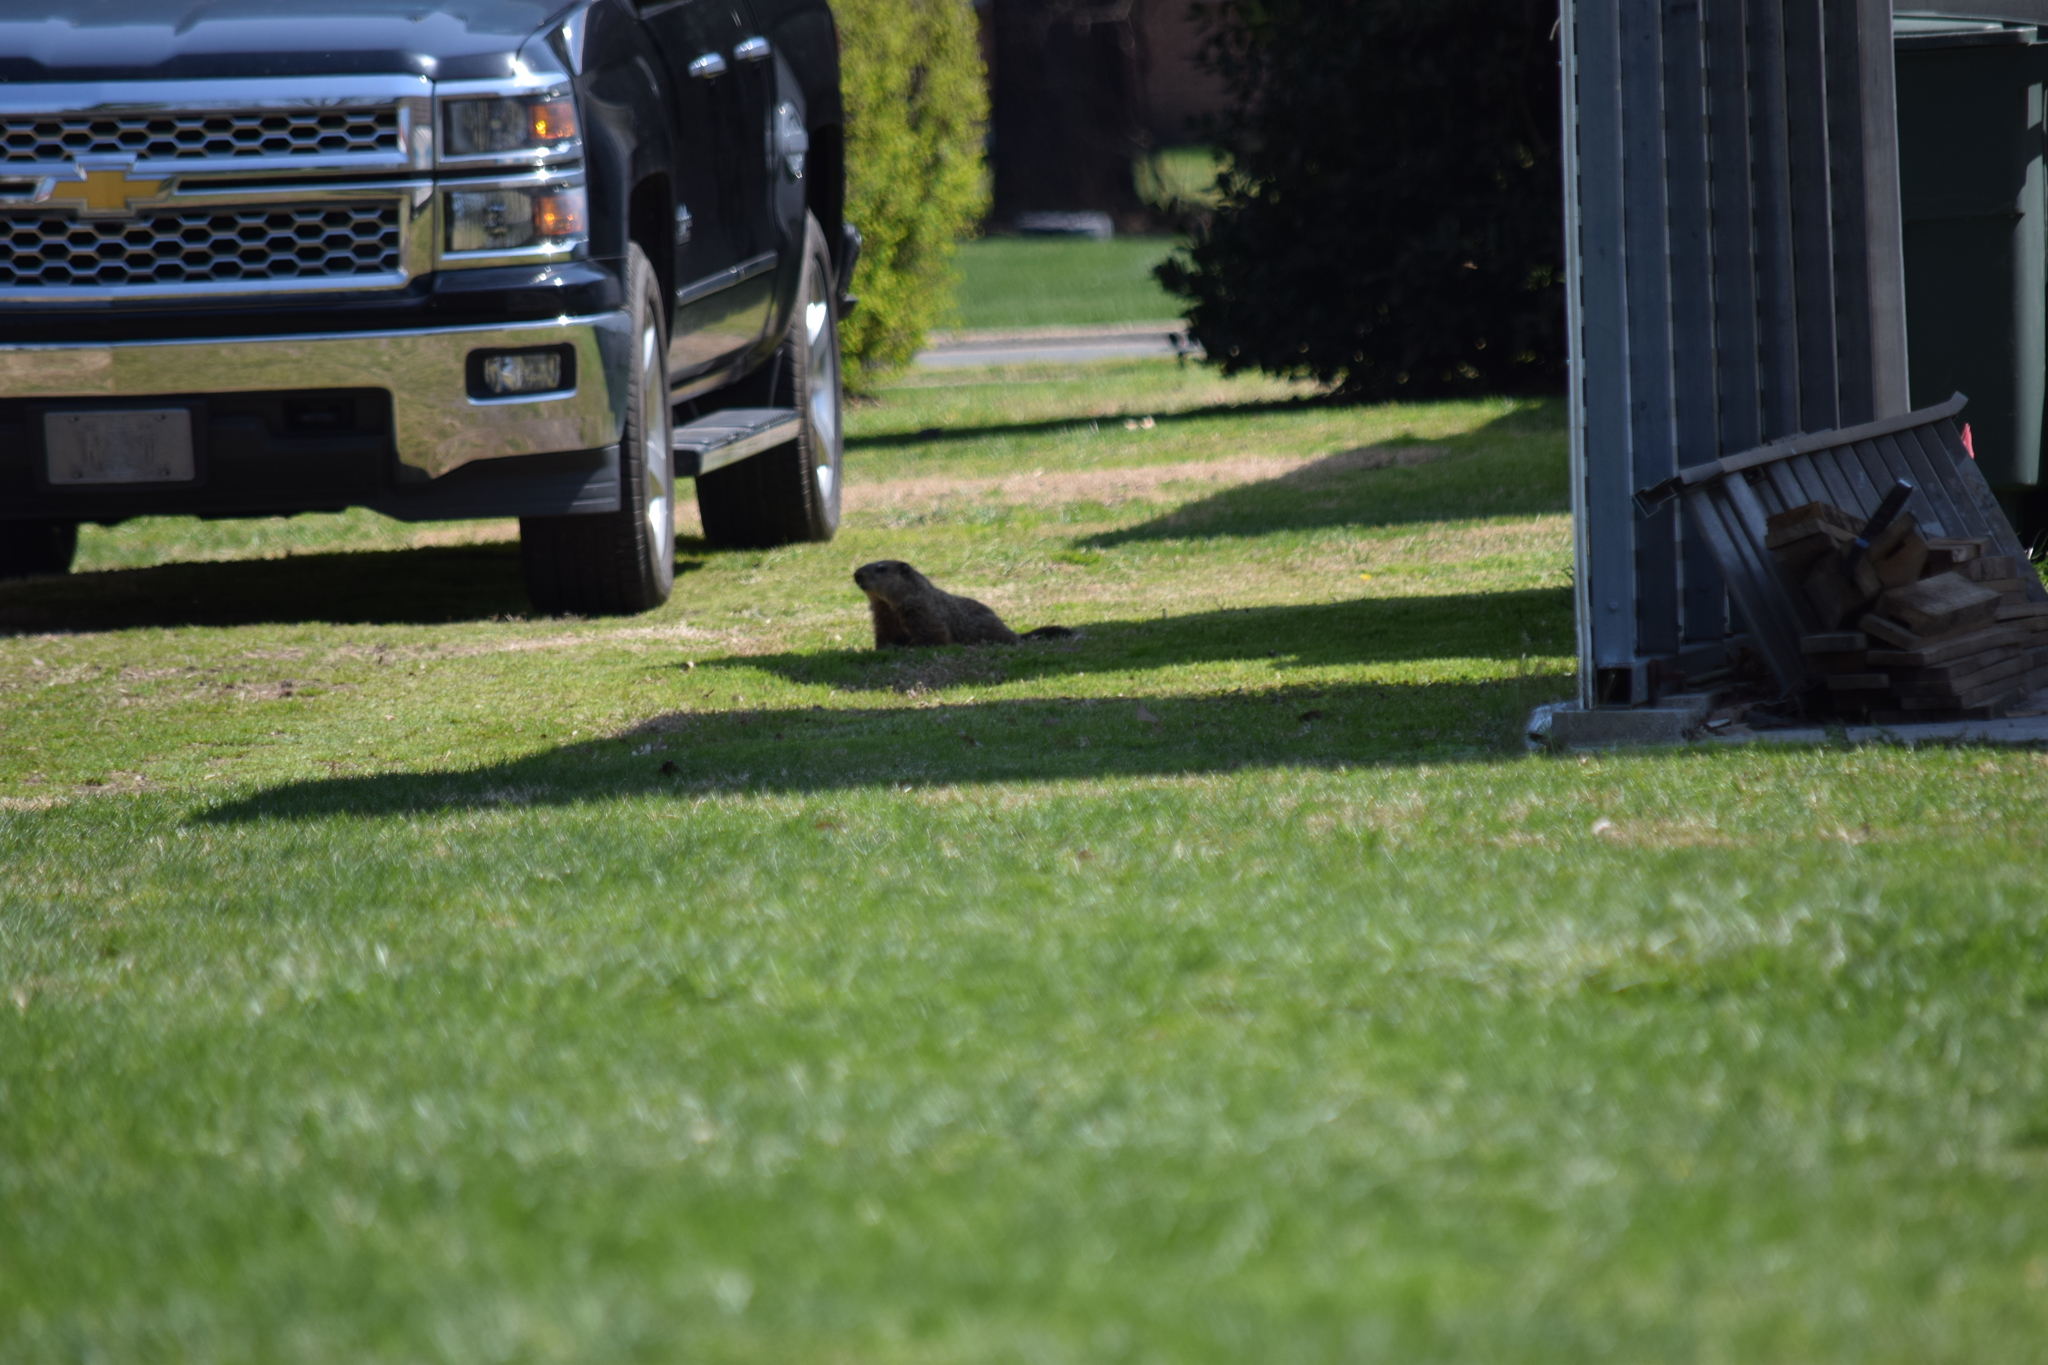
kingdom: Animalia
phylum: Chordata
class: Mammalia
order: Rodentia
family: Sciuridae
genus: Marmota
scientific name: Marmota monax
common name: Groundhog
